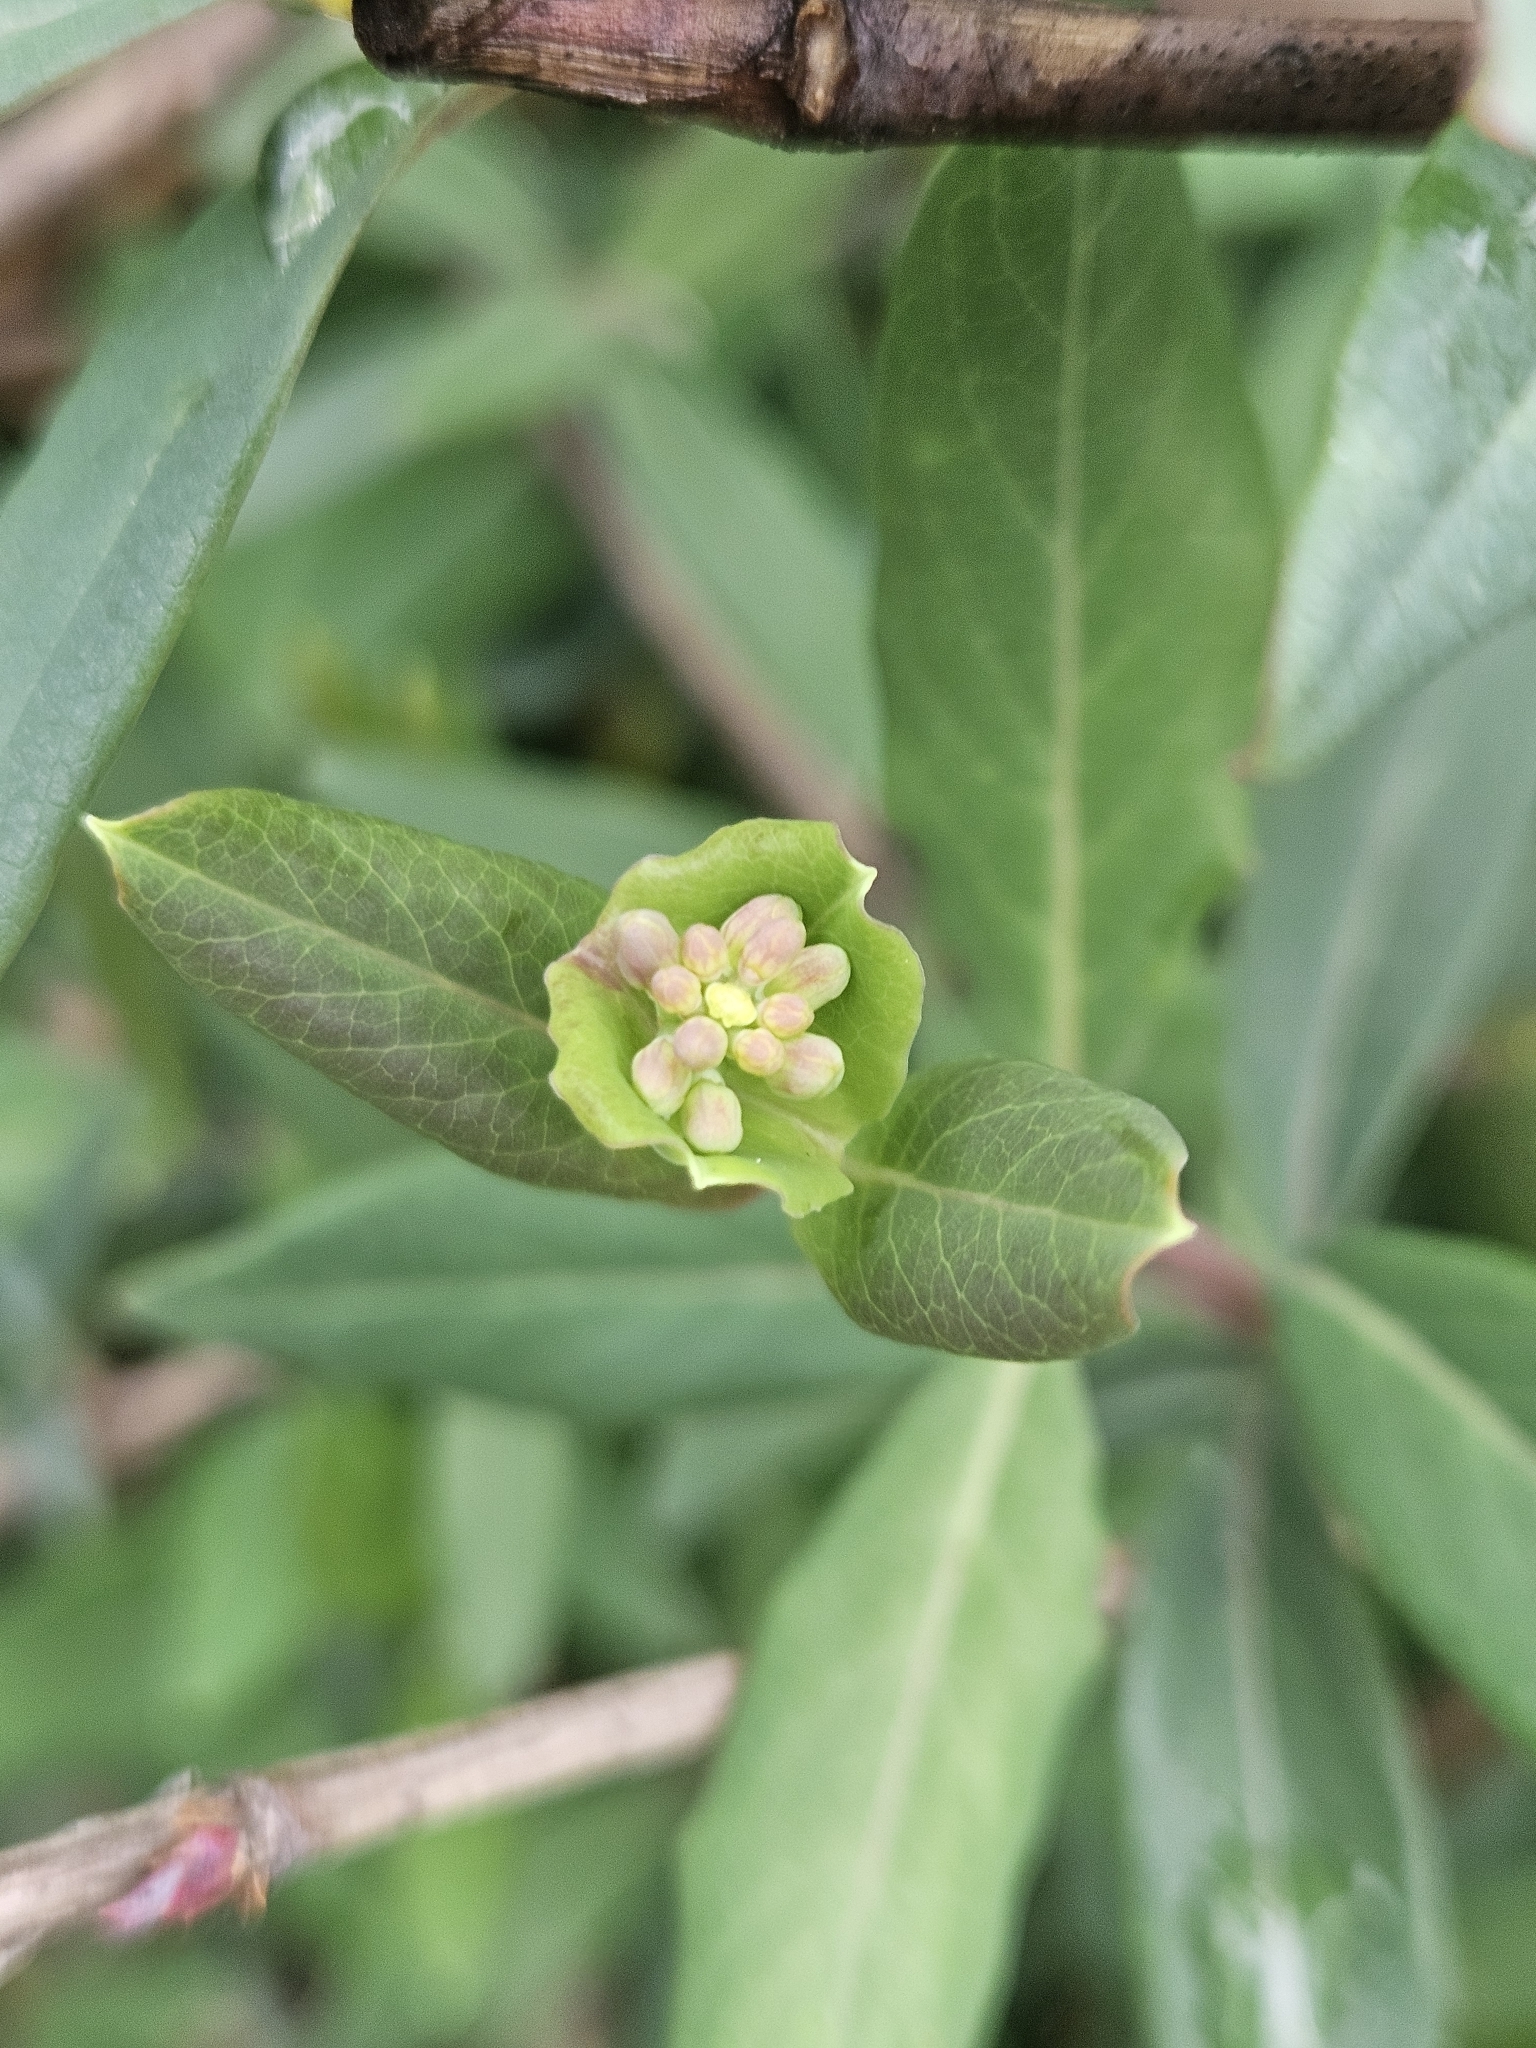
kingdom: Plantae
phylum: Tracheophyta
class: Magnoliopsida
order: Dipsacales
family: Caprifoliaceae
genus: Lonicera
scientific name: Lonicera sempervirens
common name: Coral honeysuckle
